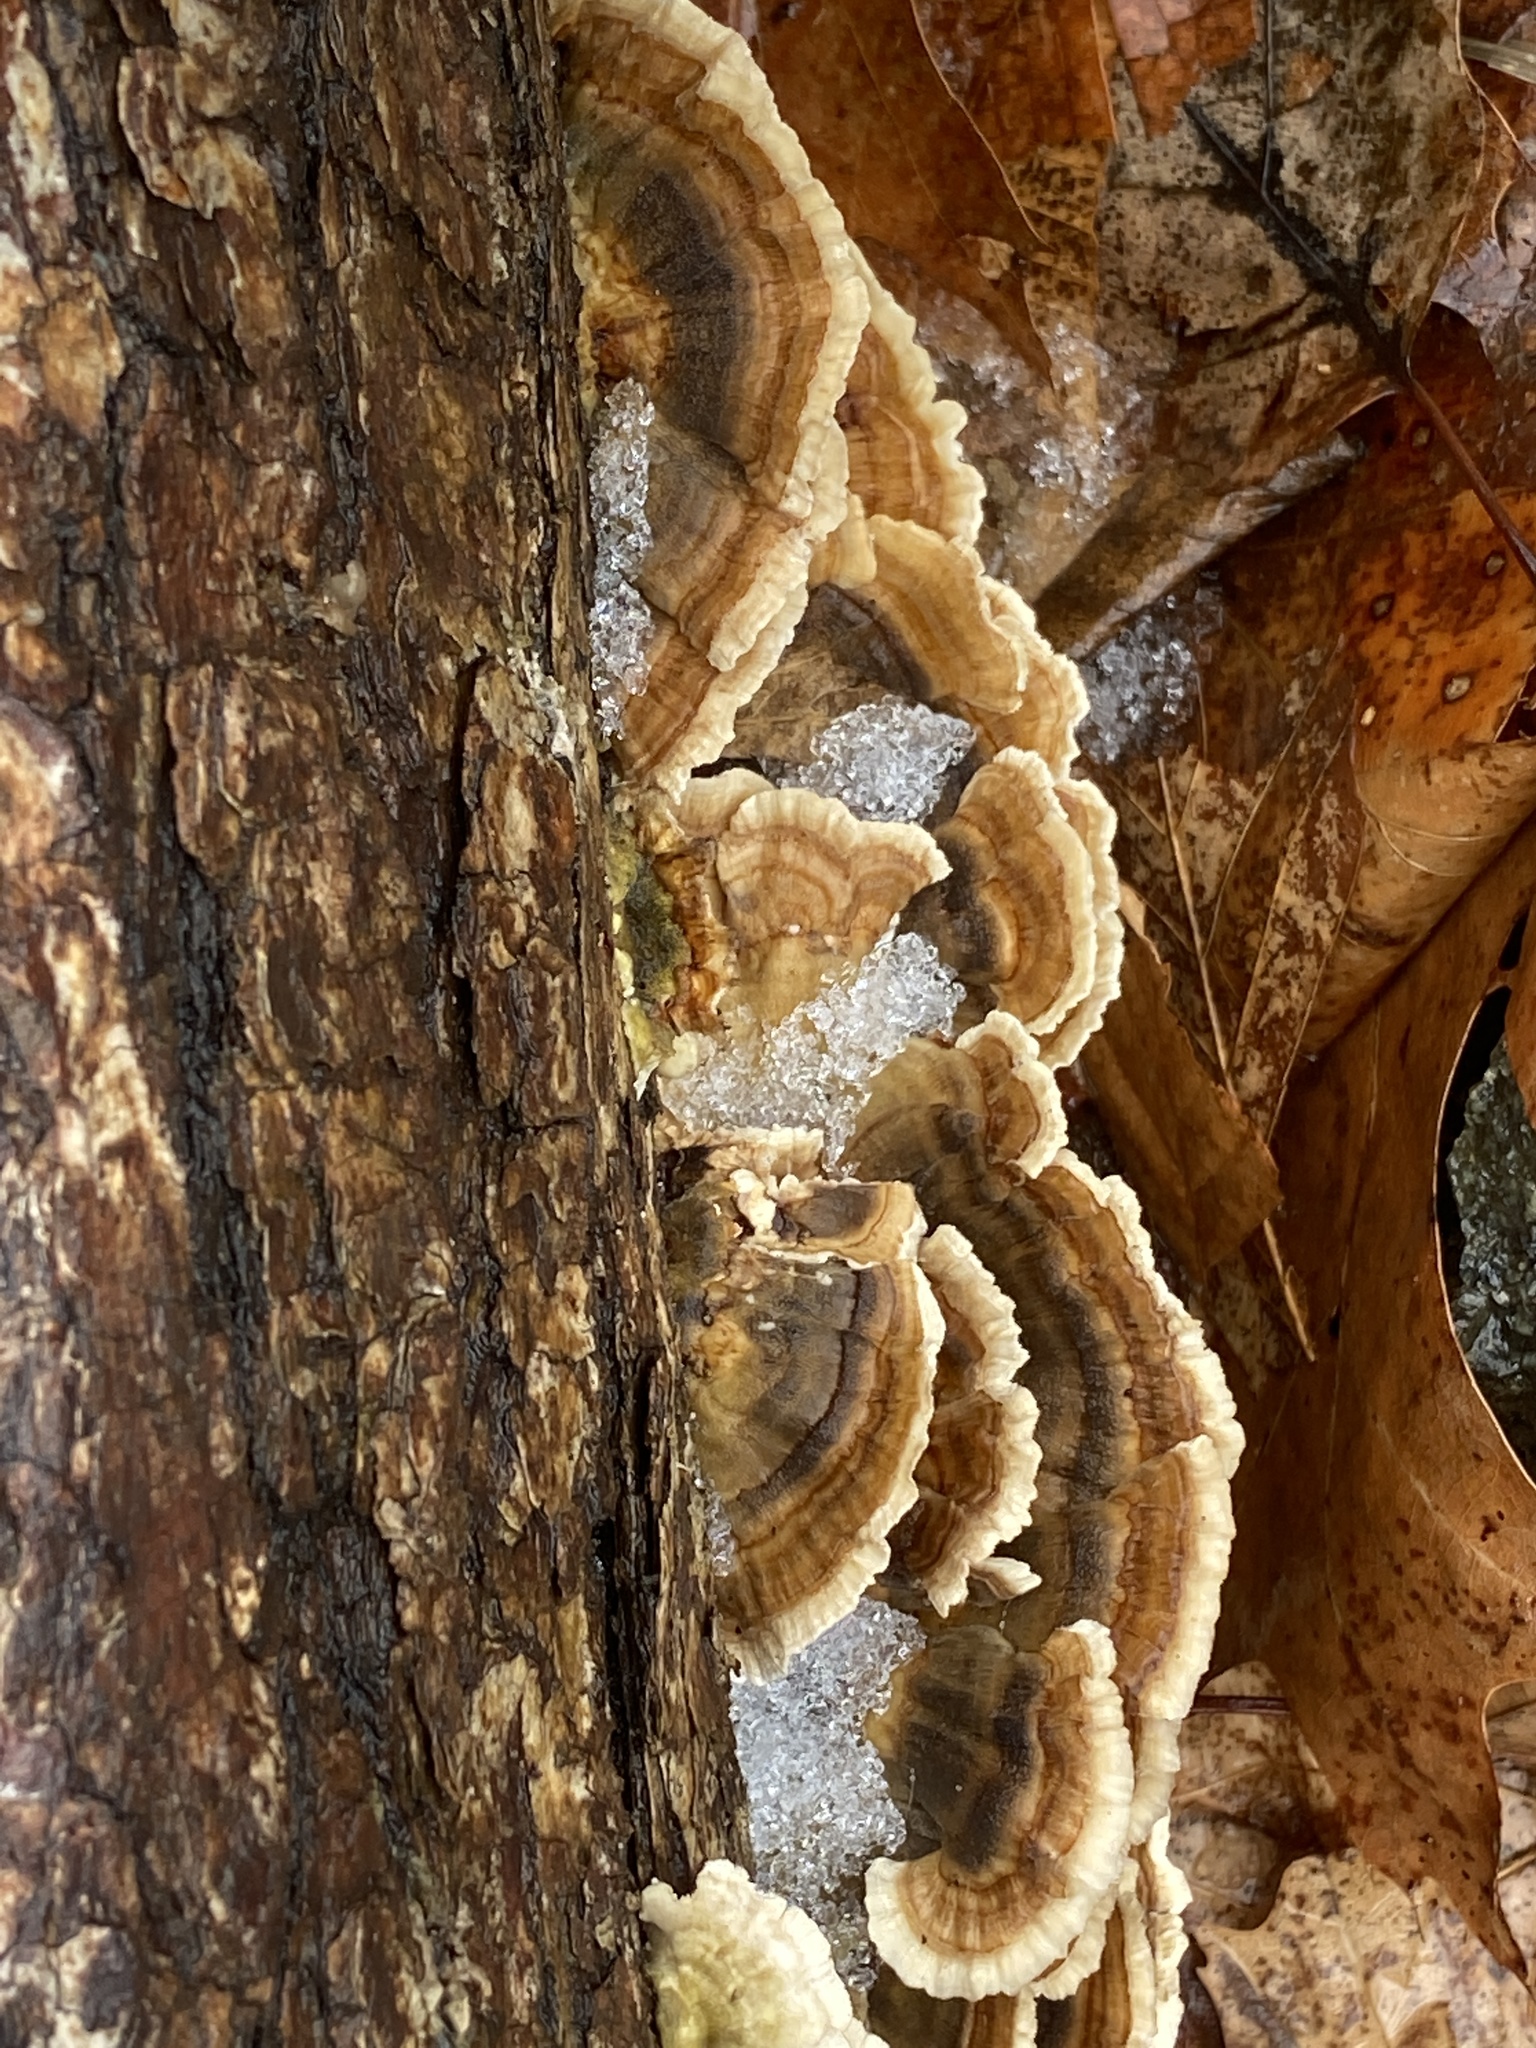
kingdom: Fungi
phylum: Basidiomycota
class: Agaricomycetes
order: Polyporales
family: Polyporaceae
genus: Trametes
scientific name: Trametes versicolor
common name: Turkeytail
